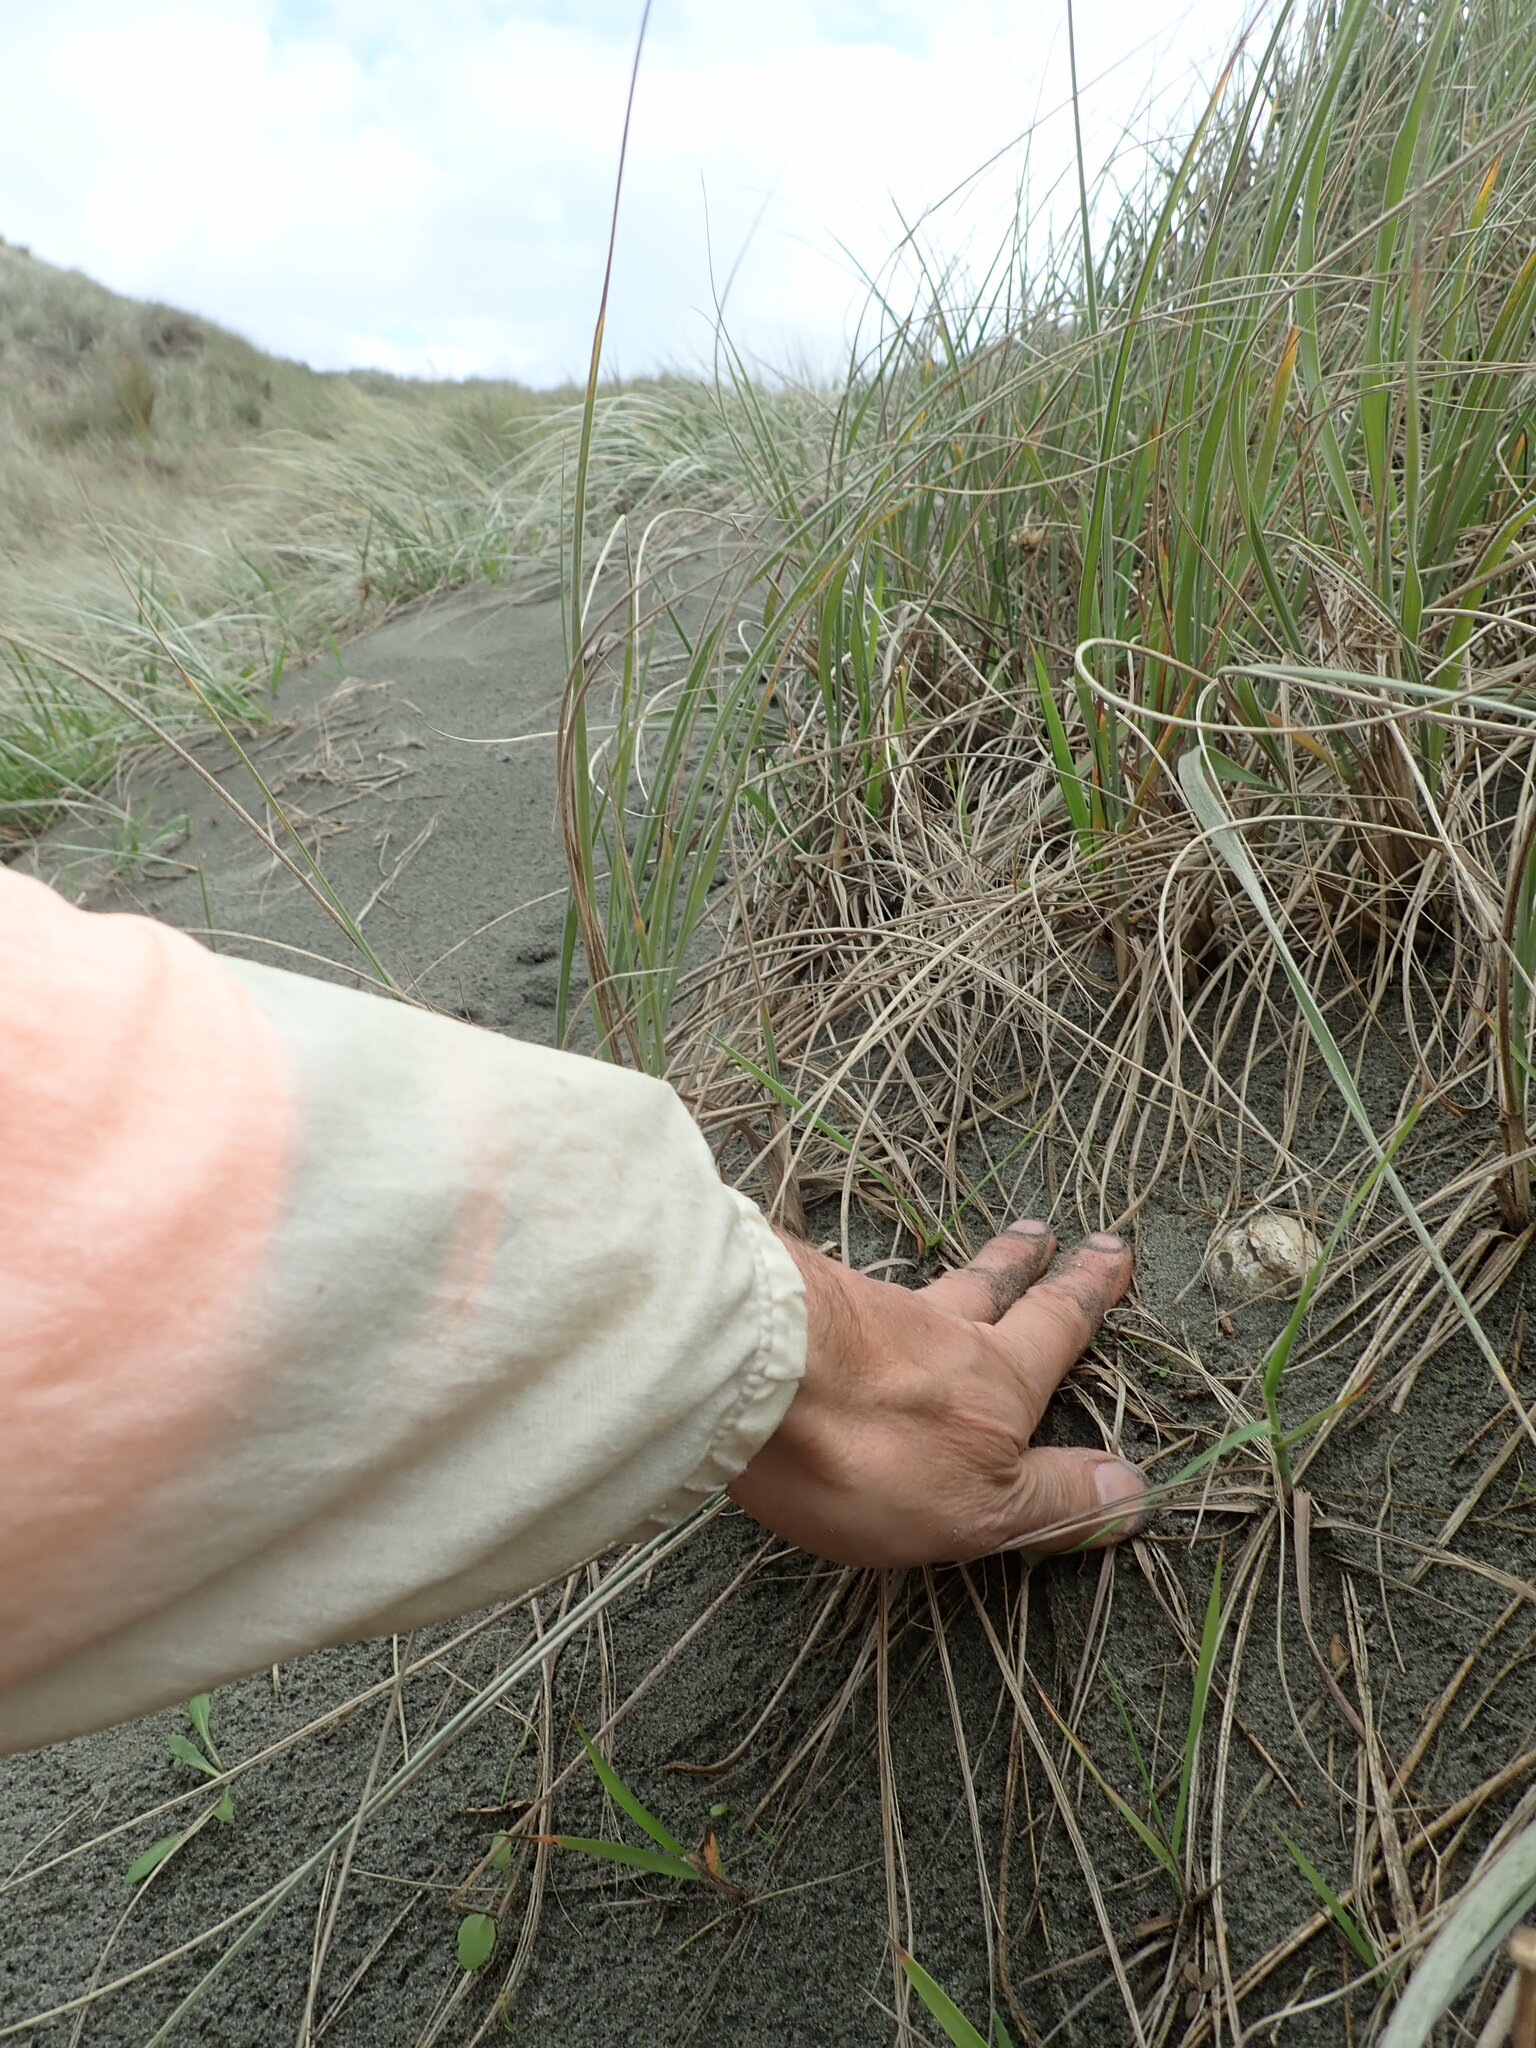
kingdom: Fungi
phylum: Basidiomycota
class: Agaricomycetes
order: Phallales
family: Phallaceae
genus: Ileodictyon
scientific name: Ileodictyon cibarium
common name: Basket fungus
